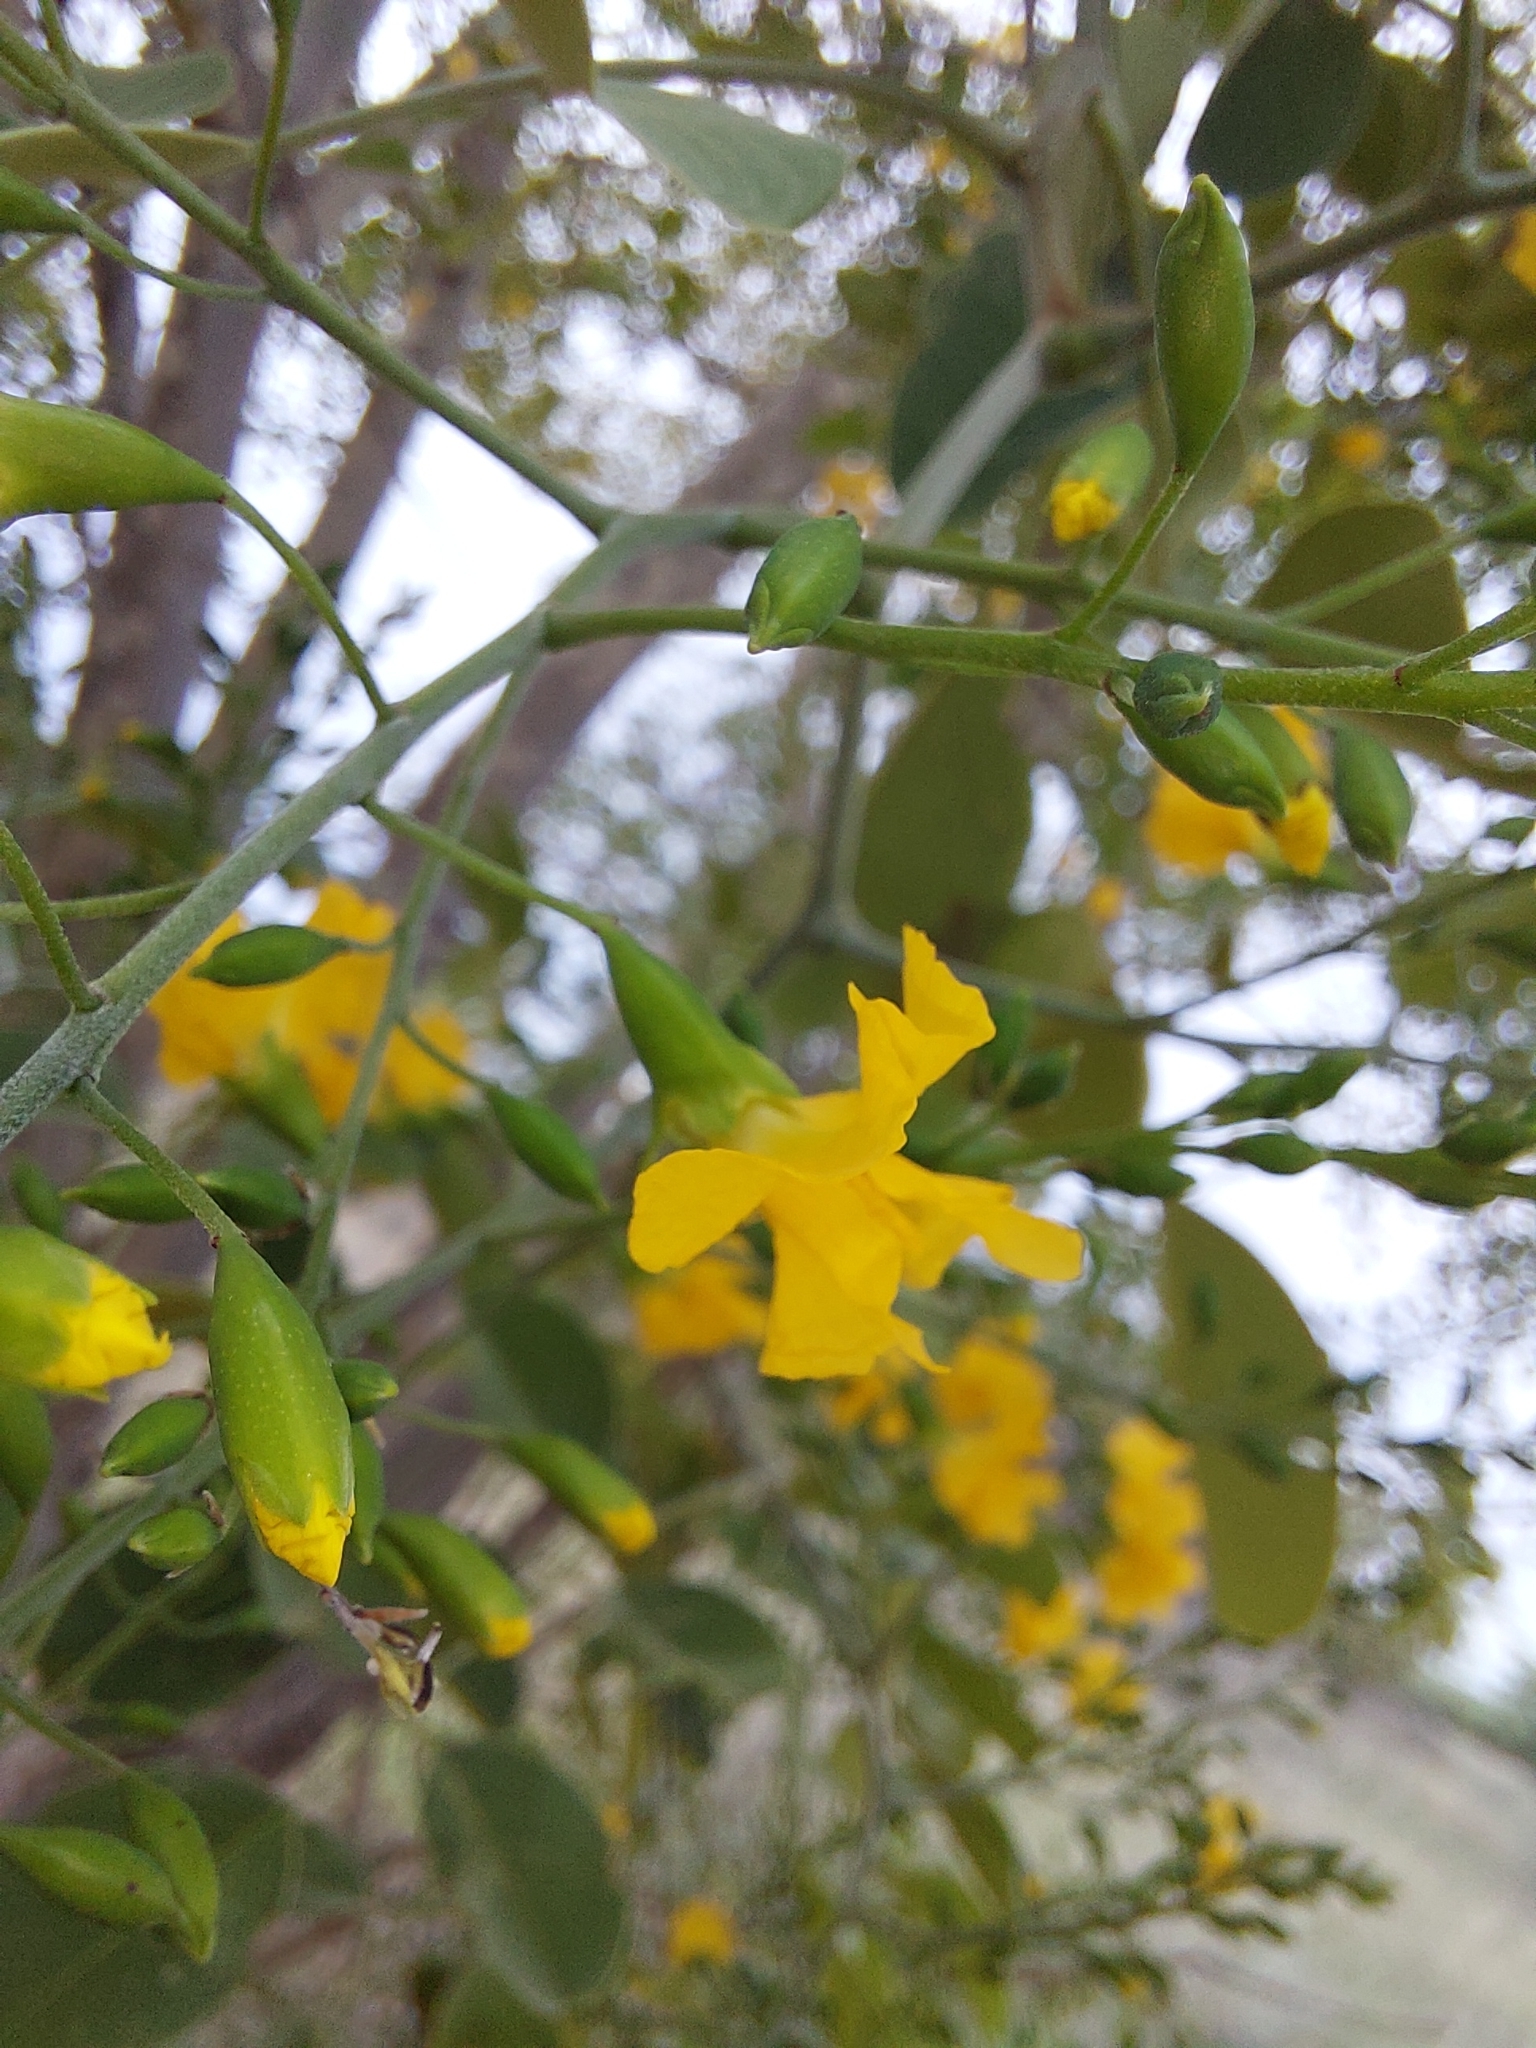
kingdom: Plantae
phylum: Tracheophyta
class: Magnoliopsida
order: Fabales
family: Fabaceae
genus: Pterocarpus
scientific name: Pterocarpus rotundifolius
